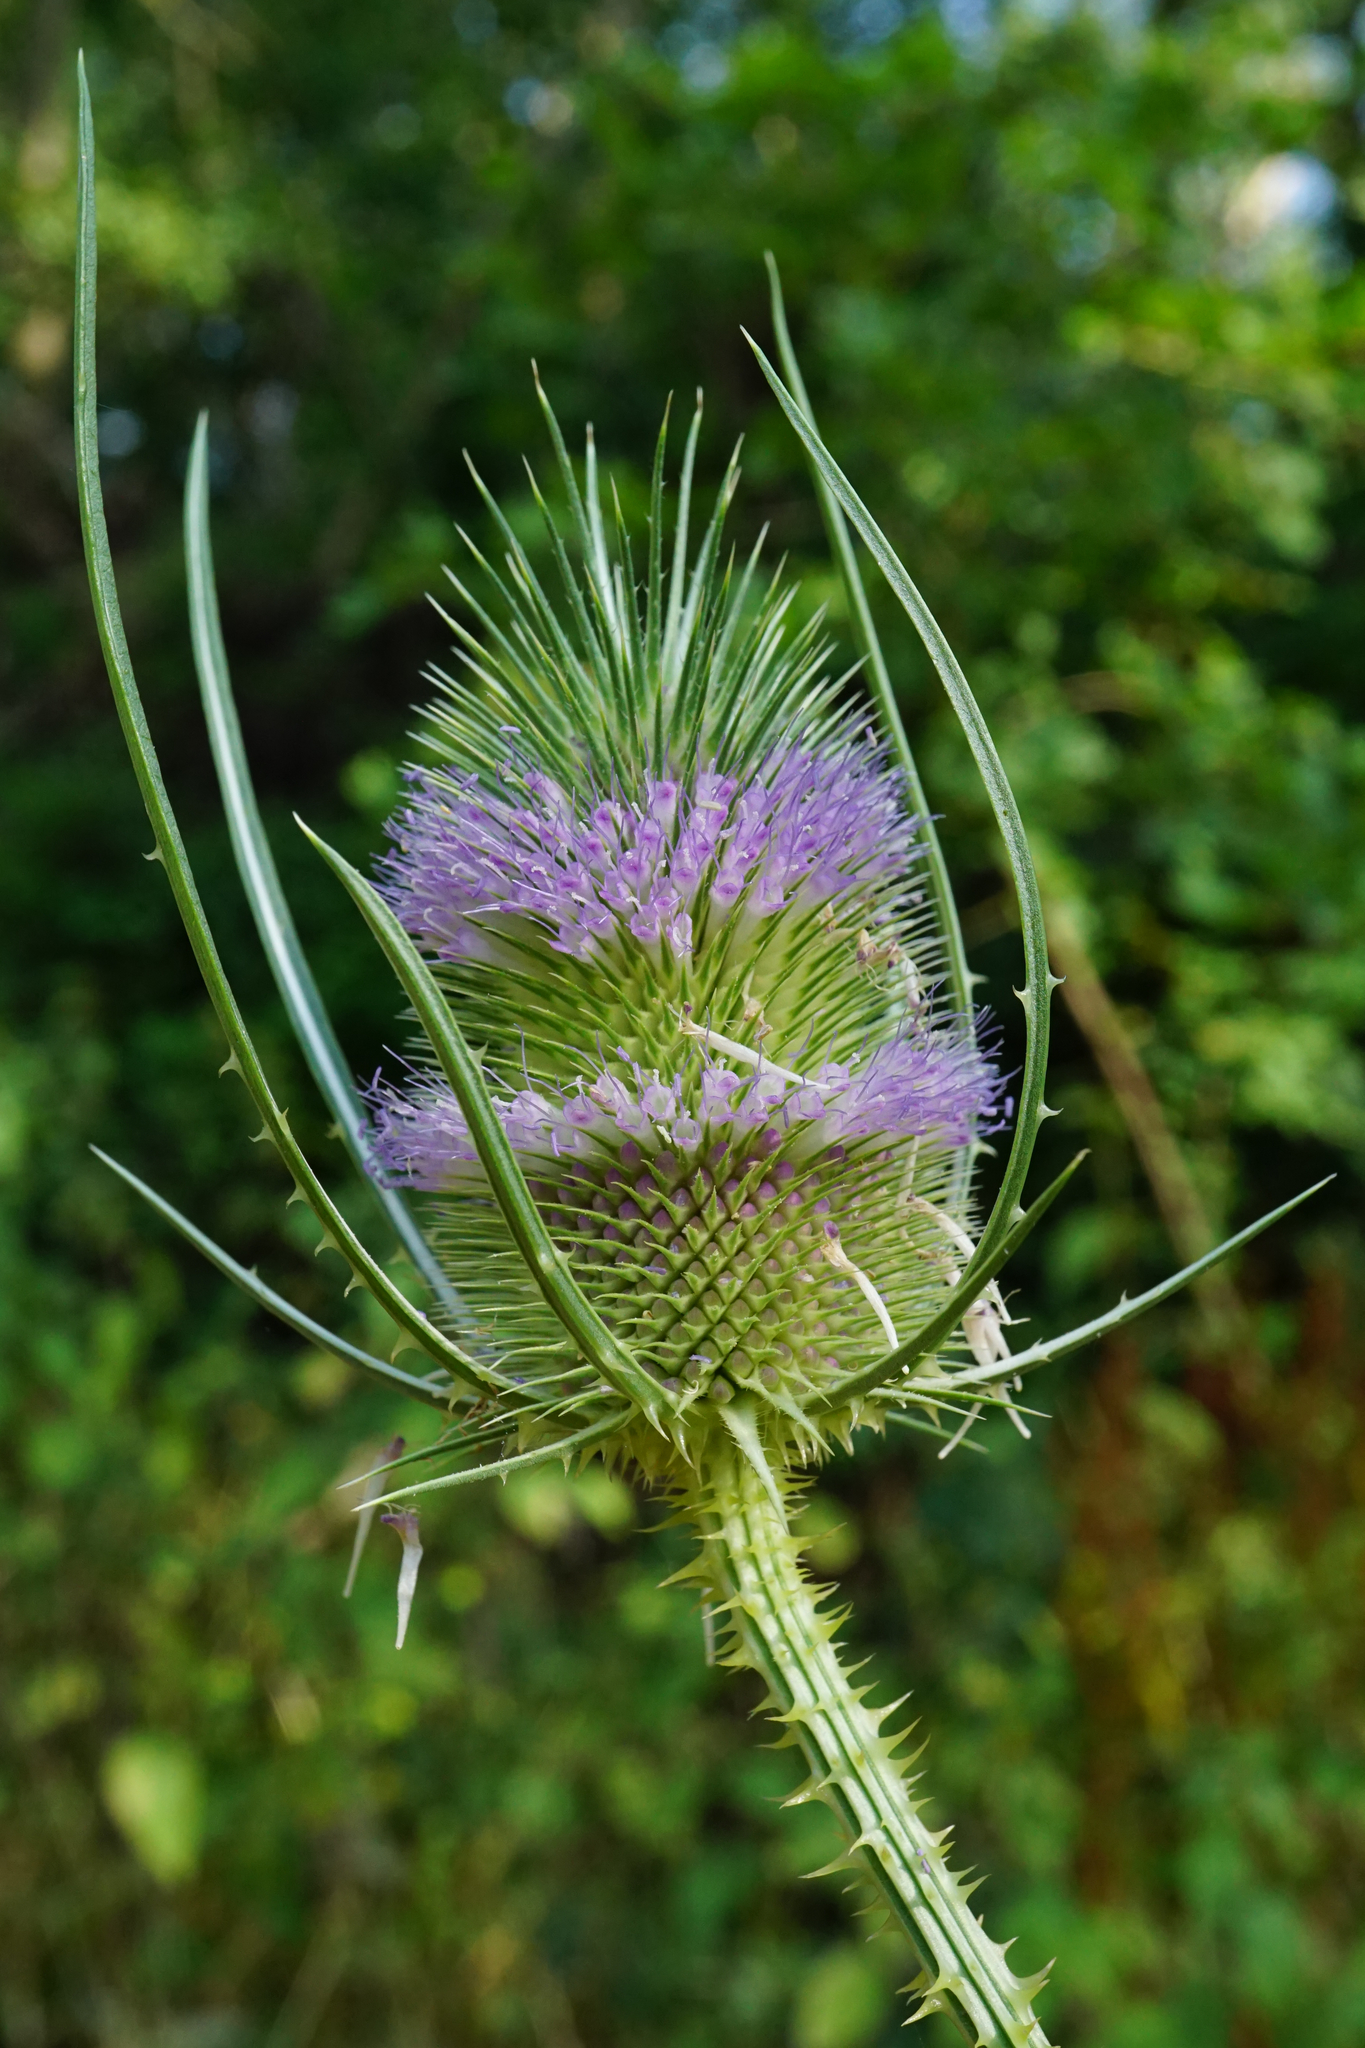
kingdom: Plantae
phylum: Tracheophyta
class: Magnoliopsida
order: Dipsacales
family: Caprifoliaceae
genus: Dipsacus
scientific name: Dipsacus fullonum
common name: Teasel
